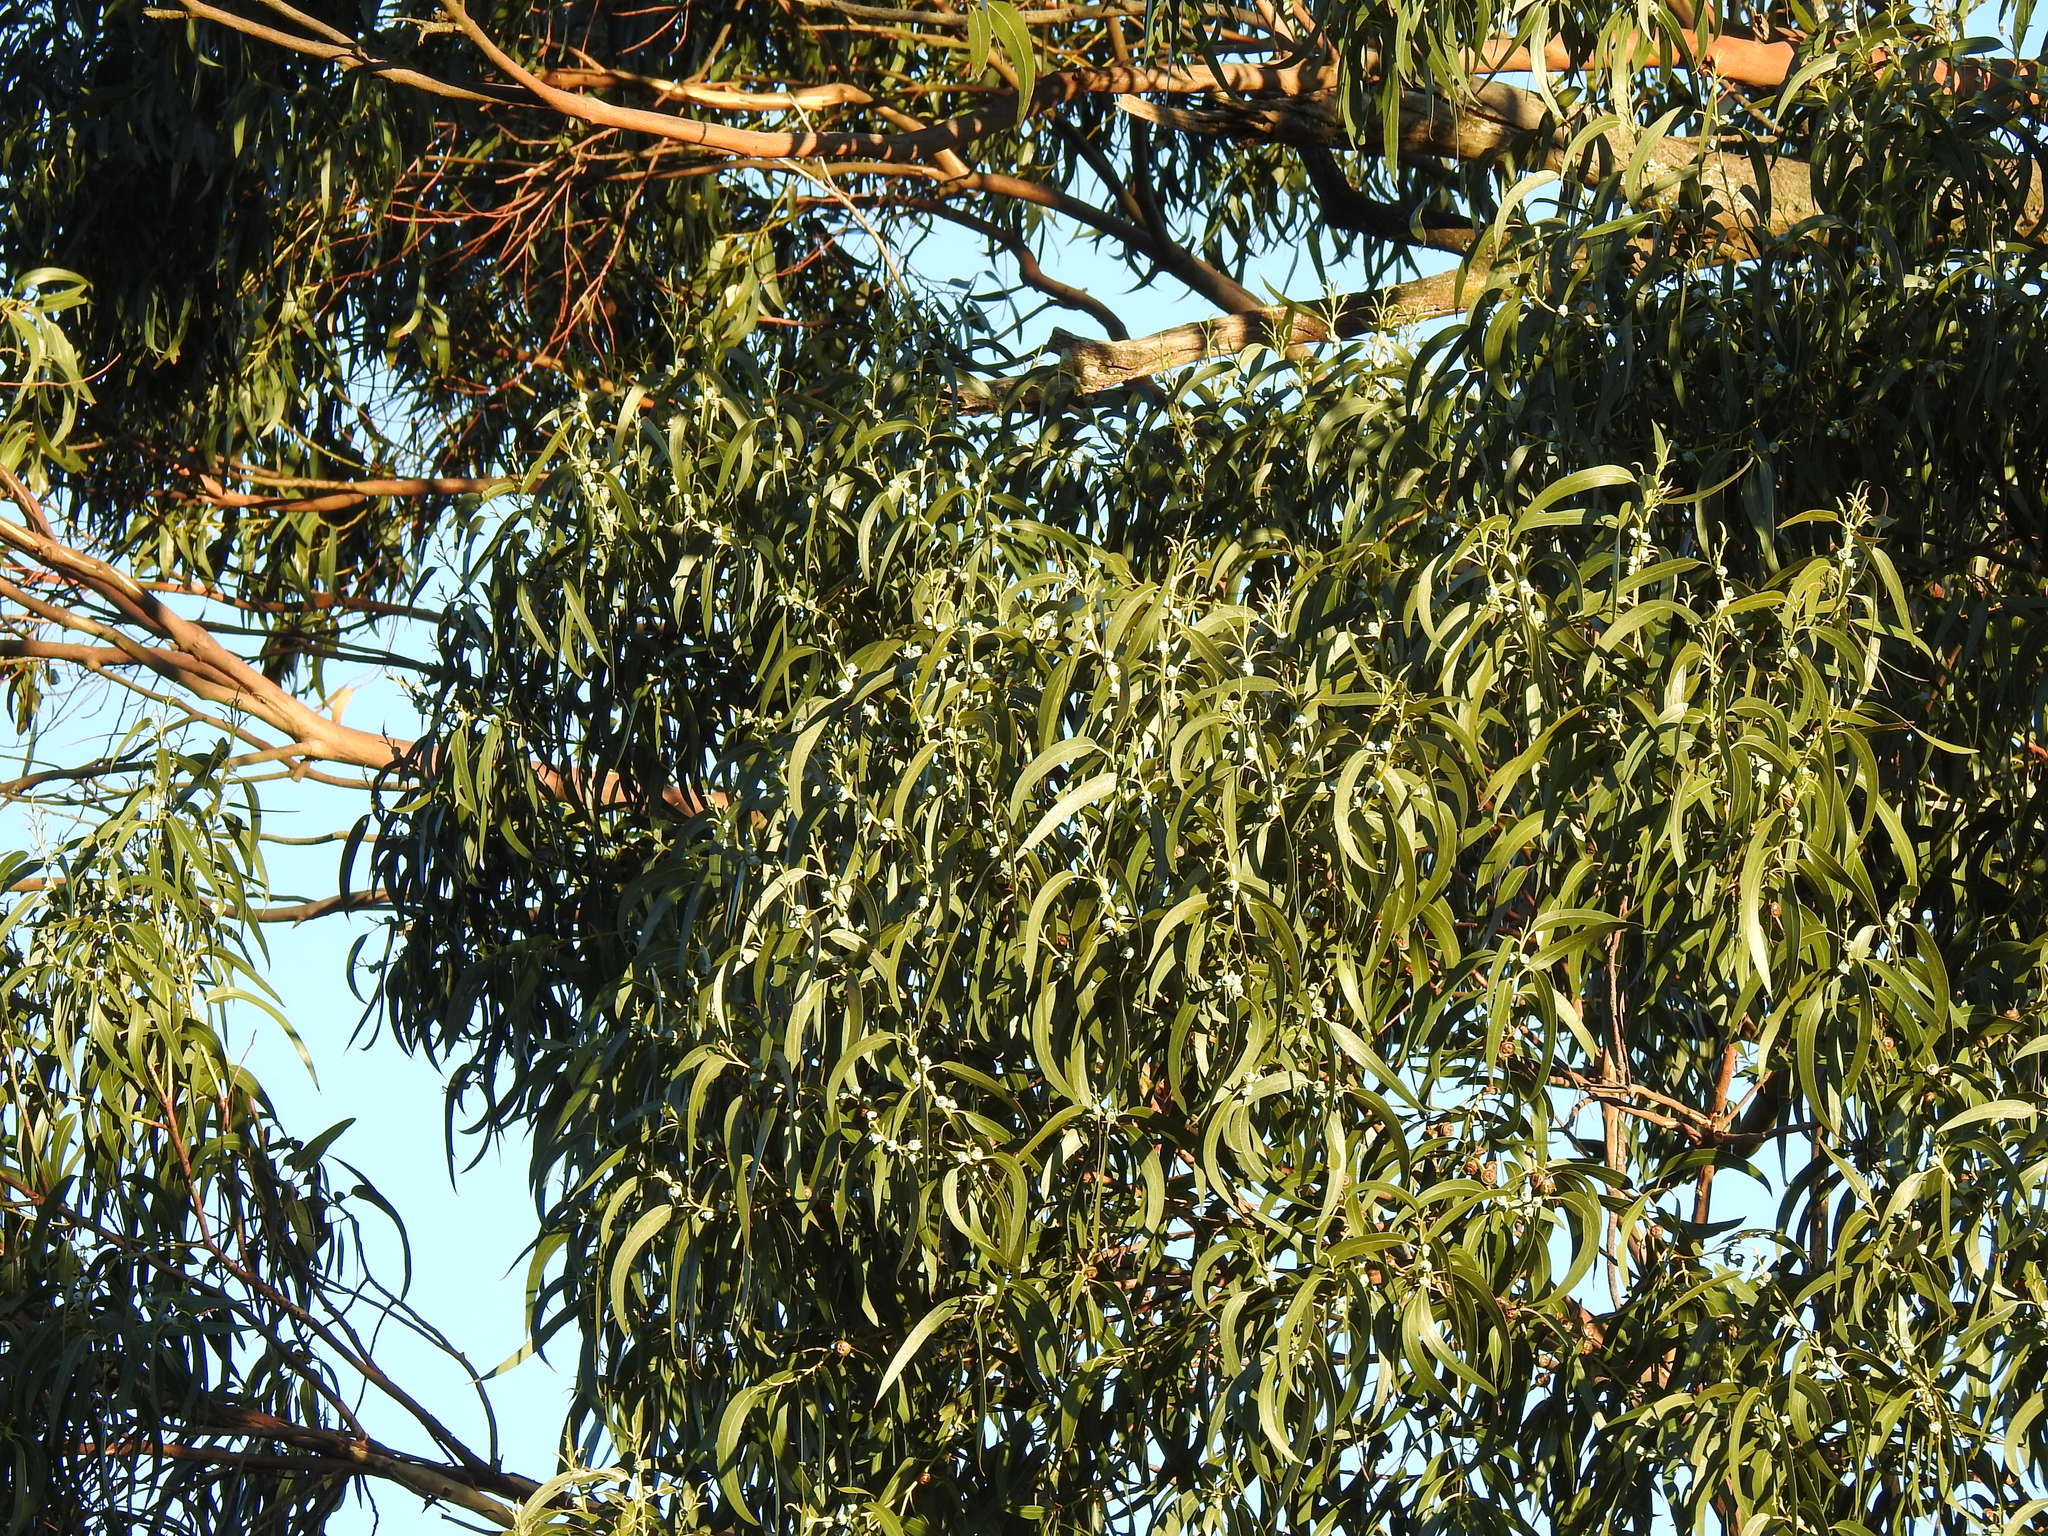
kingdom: Plantae
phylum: Tracheophyta
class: Magnoliopsida
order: Myrtales
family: Myrtaceae
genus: Eucalyptus
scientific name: Eucalyptus globulus
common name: Southern blue-gum
